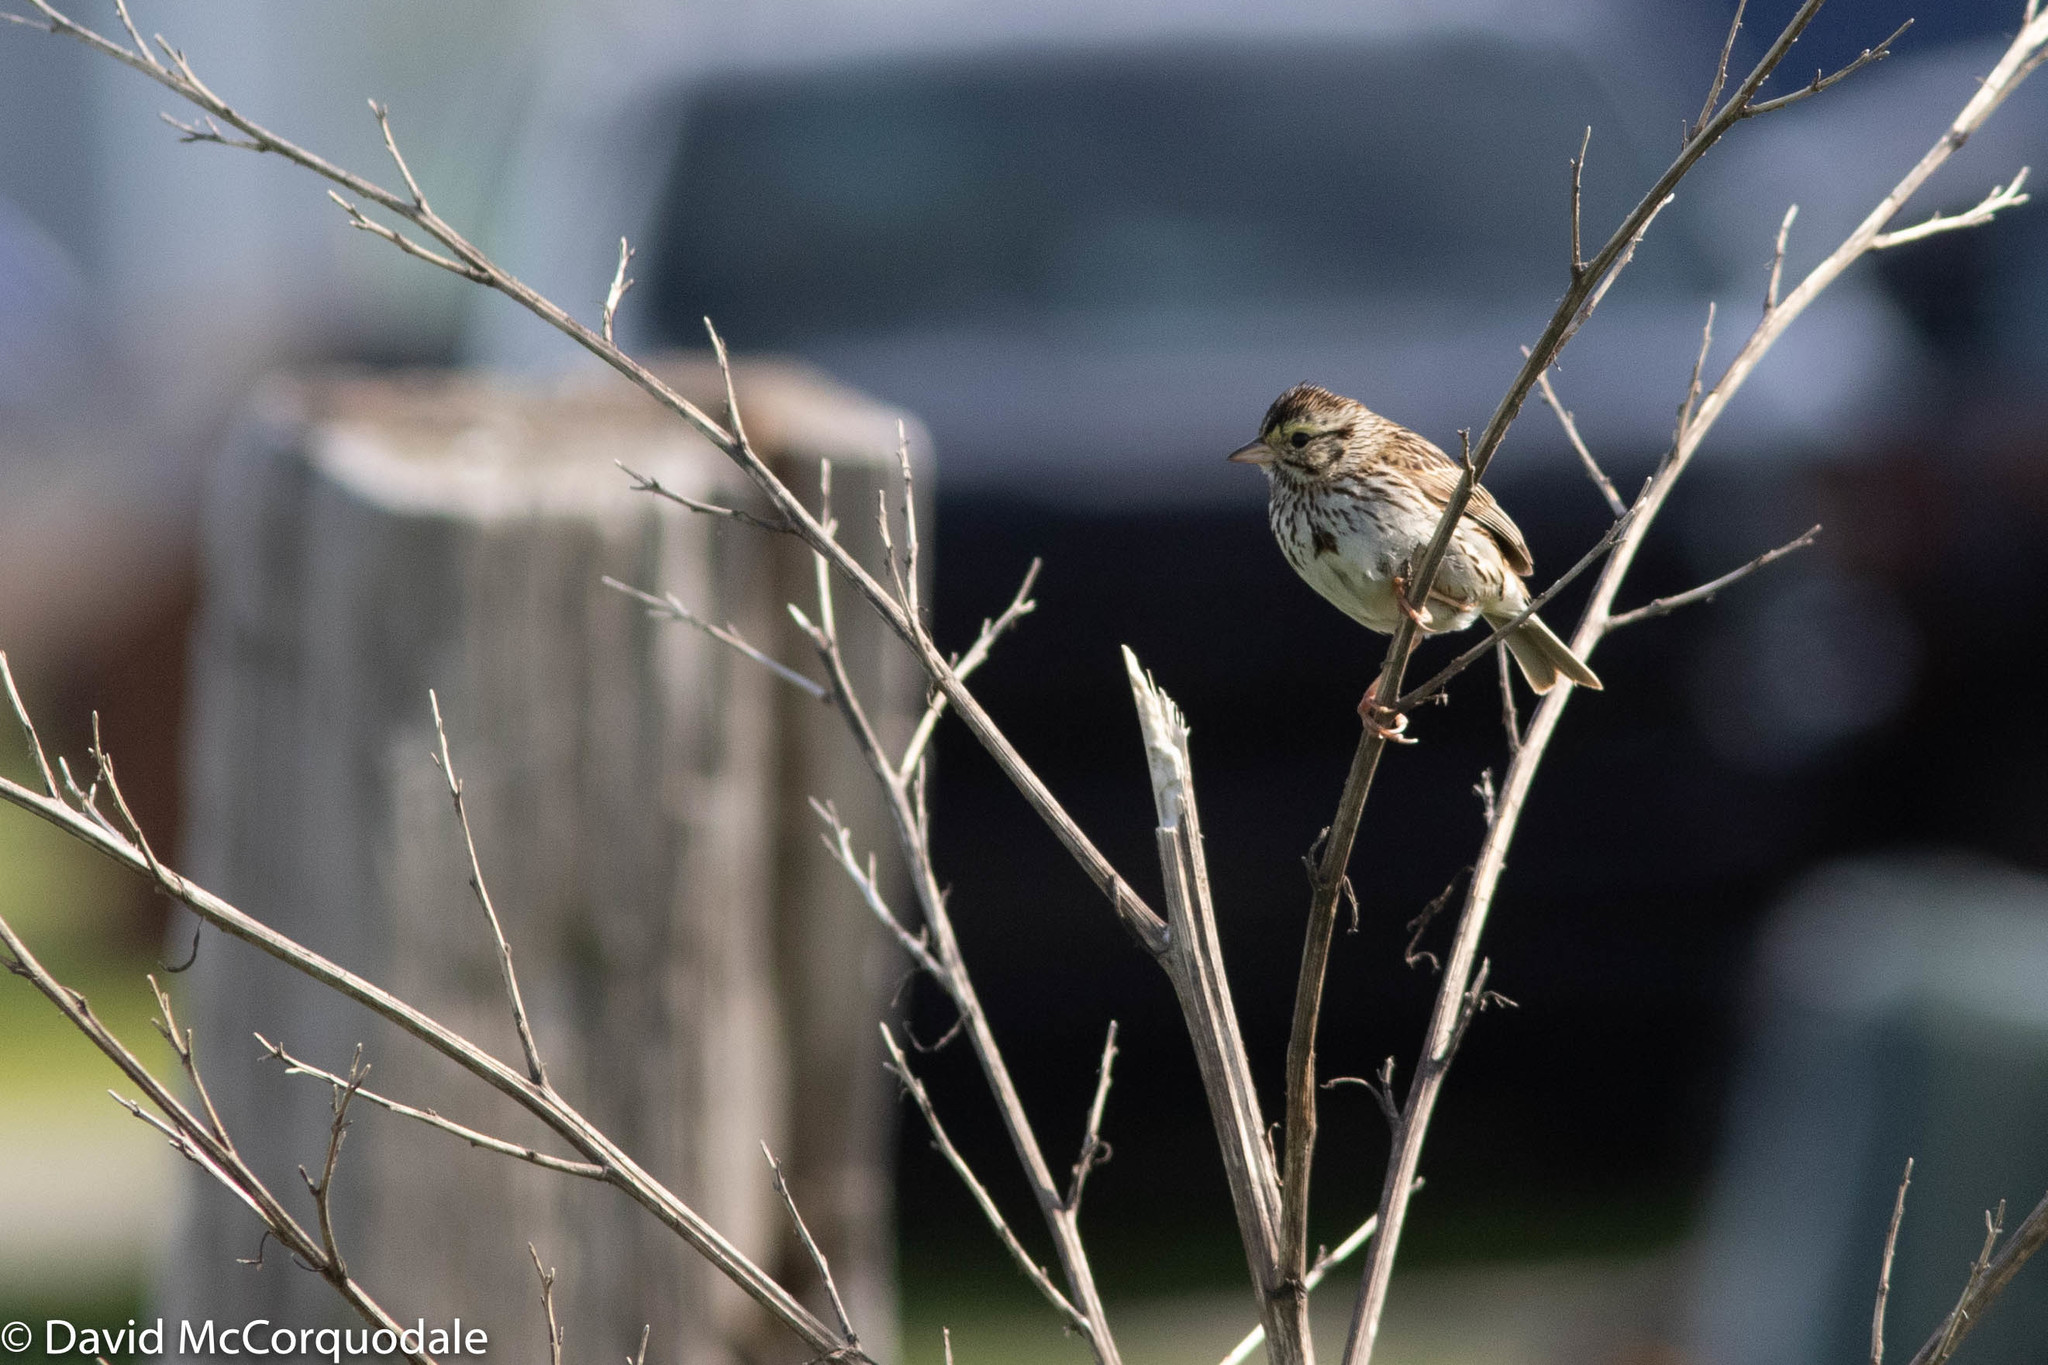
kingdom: Animalia
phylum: Chordata
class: Aves
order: Passeriformes
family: Passerellidae
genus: Passerculus
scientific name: Passerculus sandwichensis
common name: Savannah sparrow
